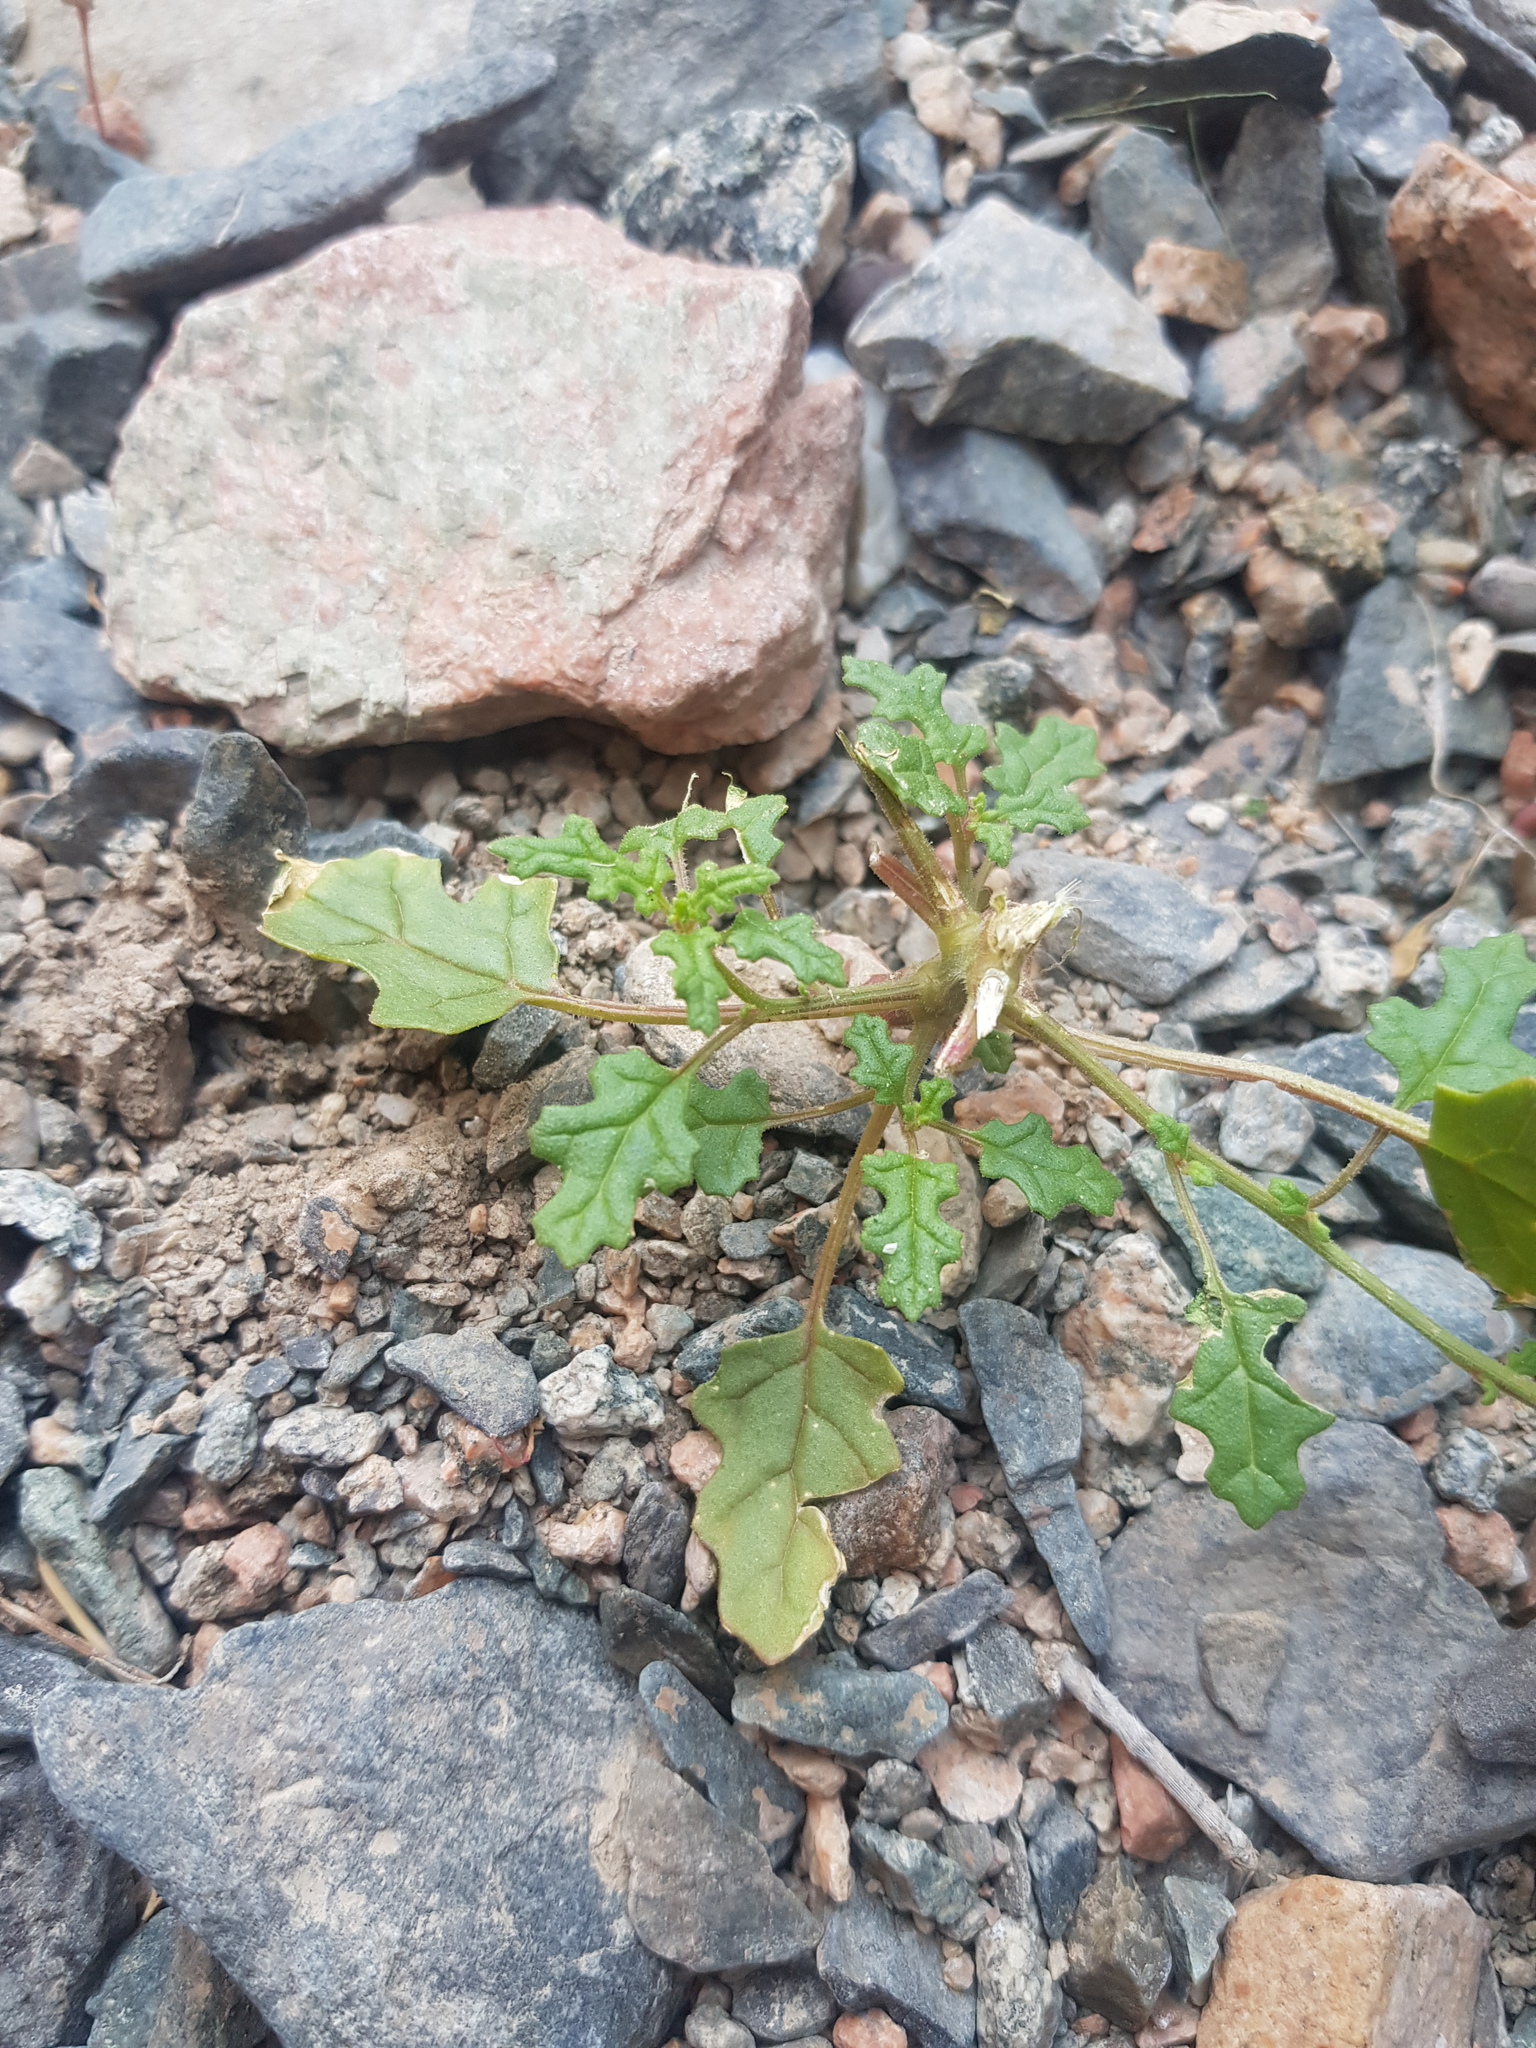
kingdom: Plantae
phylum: Tracheophyta
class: Magnoliopsida
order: Caryophyllales
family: Amaranthaceae
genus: Dysphania
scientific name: Dysphania botrys
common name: Feather-geranium
